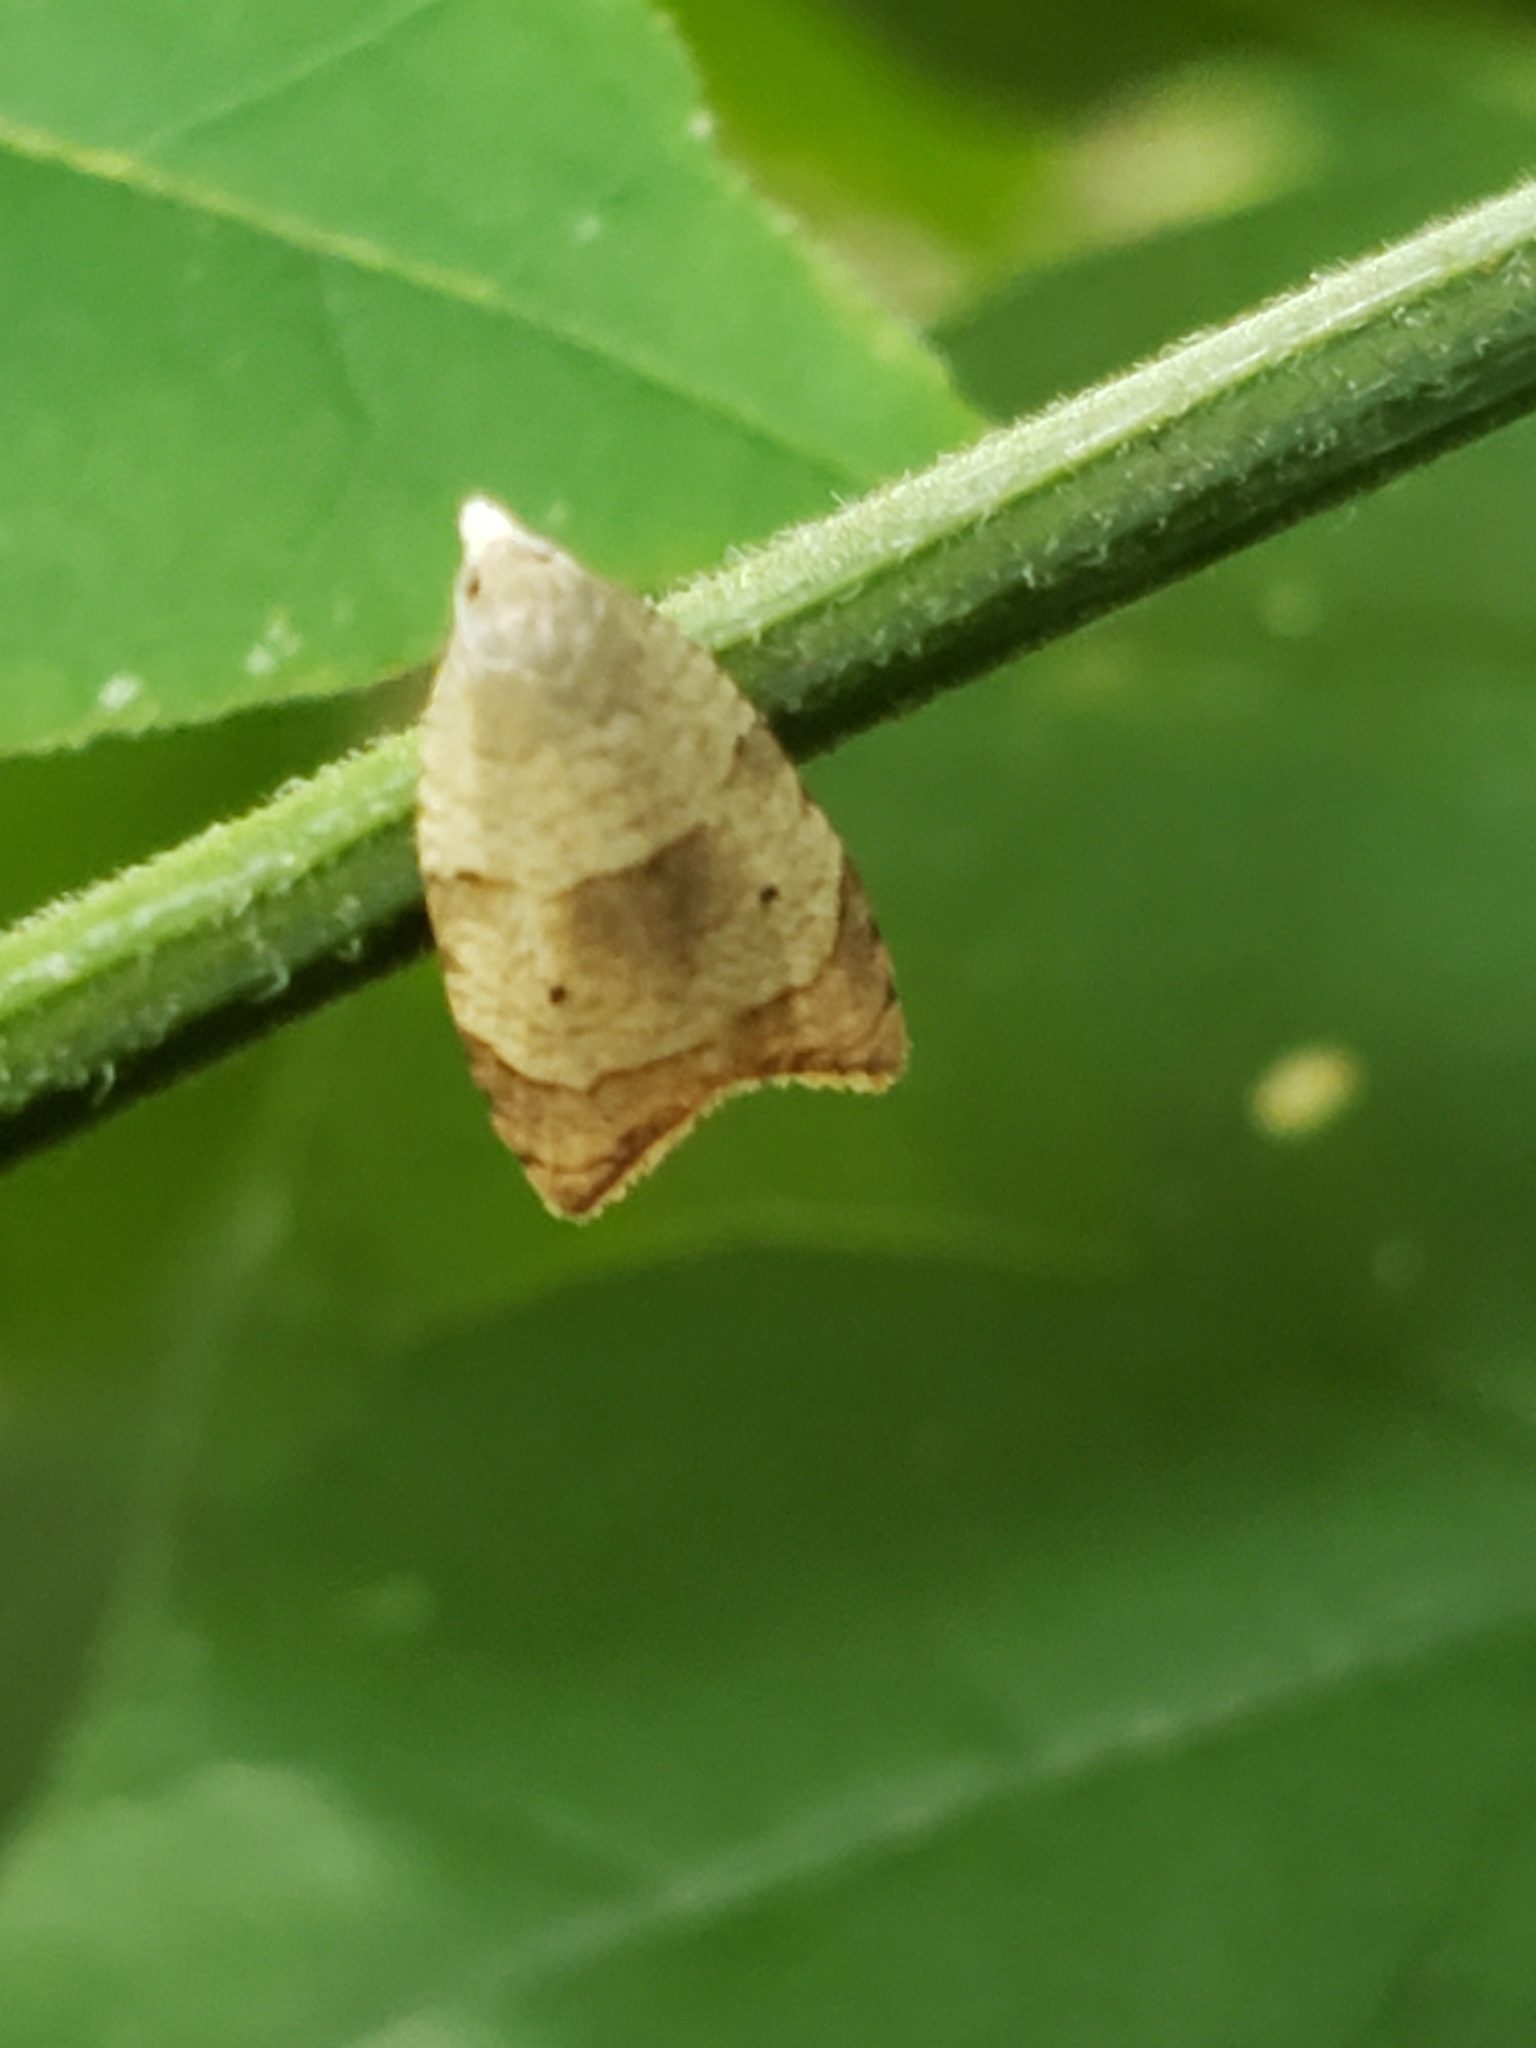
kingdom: Animalia
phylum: Arthropoda
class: Insecta
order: Lepidoptera
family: Tortricidae
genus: Coelostathma
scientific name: Coelostathma discopunctana
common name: Batman moth
